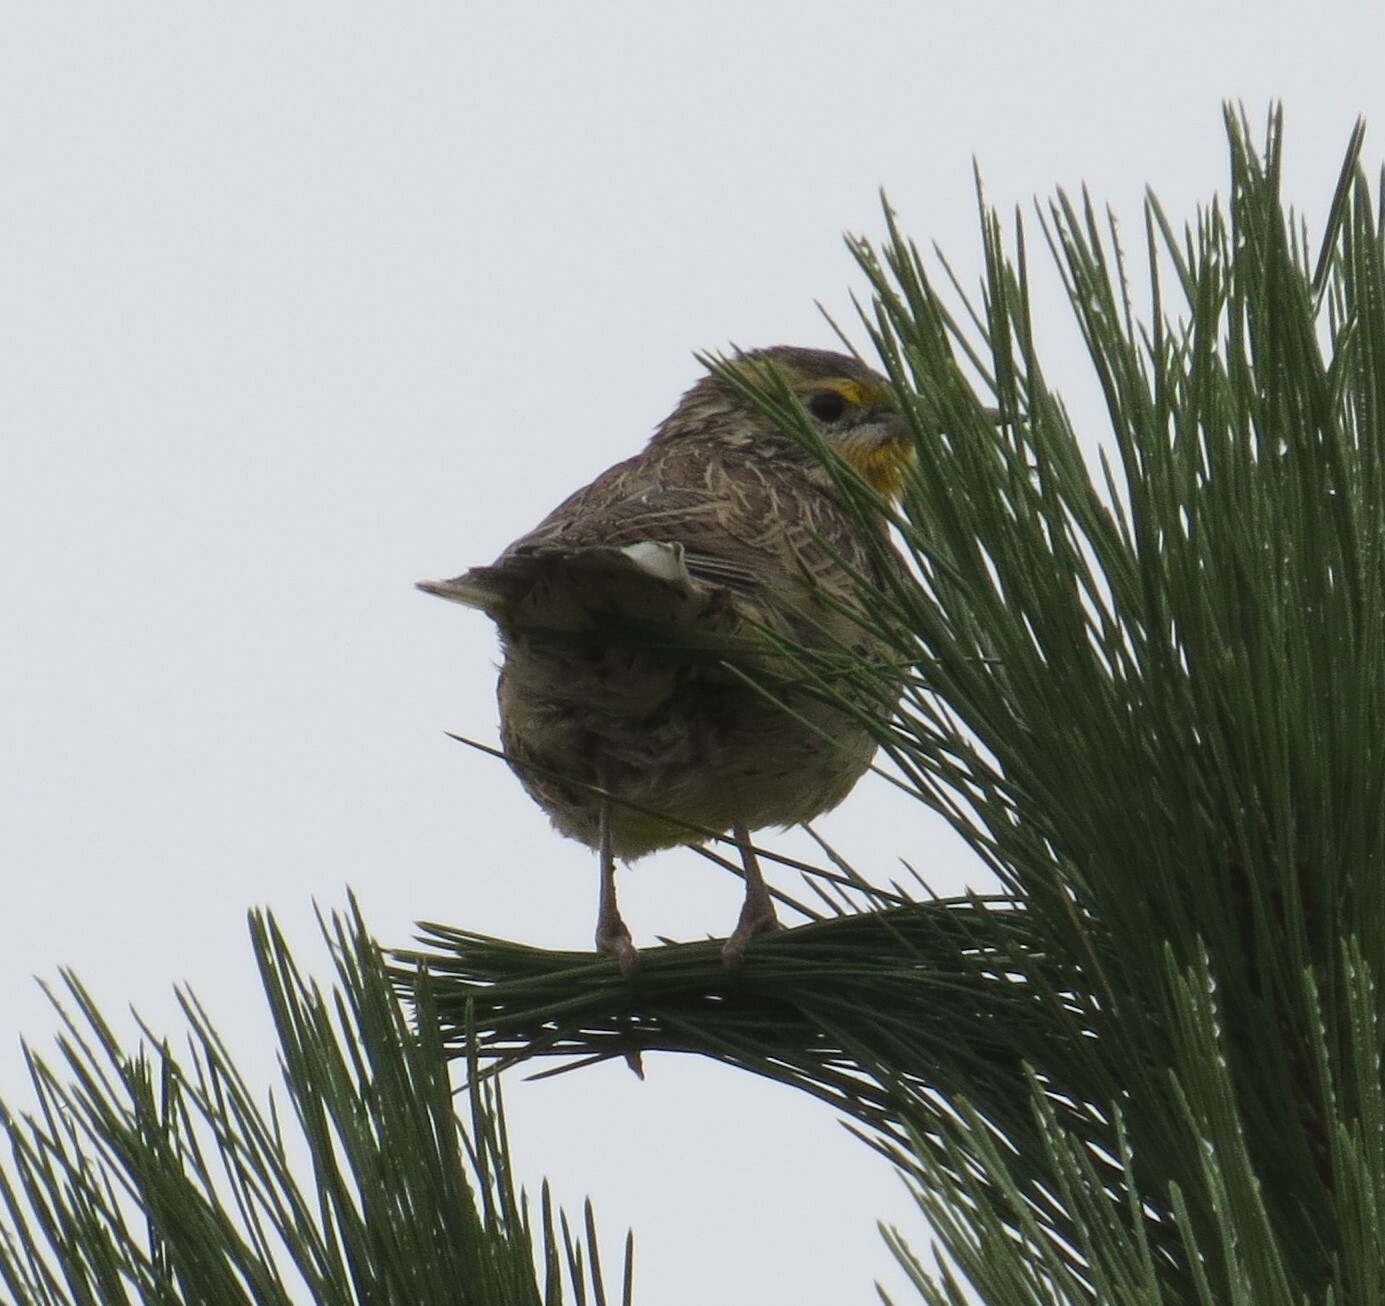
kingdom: Animalia
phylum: Chordata
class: Aves
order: Passeriformes
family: Icteridae
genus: Sturnella
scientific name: Sturnella neglecta
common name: Western meadowlark
